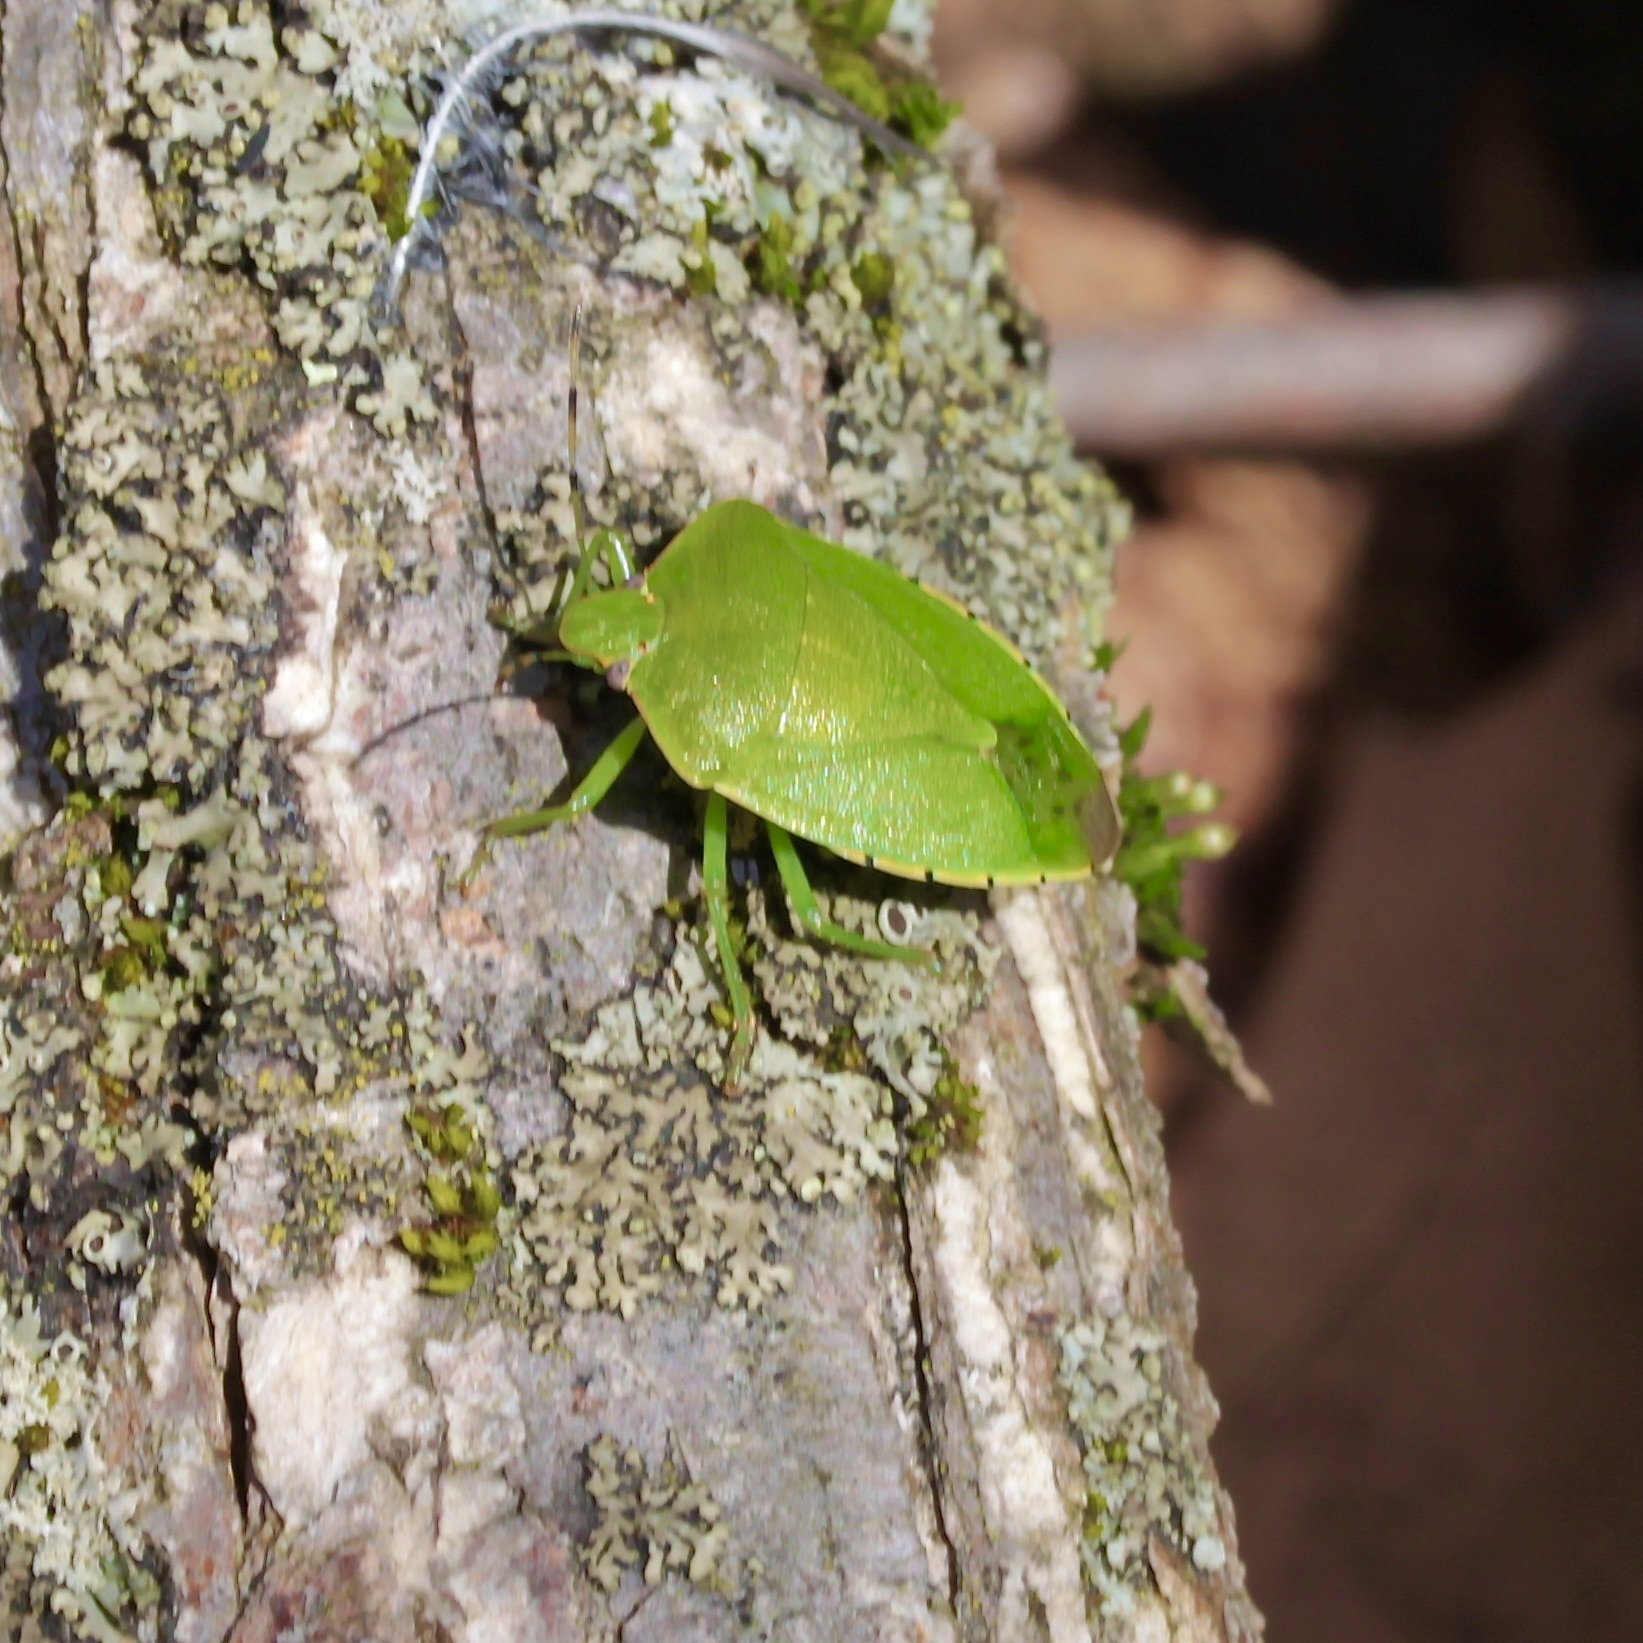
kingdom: Animalia
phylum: Arthropoda
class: Insecta
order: Hemiptera
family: Pentatomidae
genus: Chinavia
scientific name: Chinavia hilaris
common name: Green stink bug
